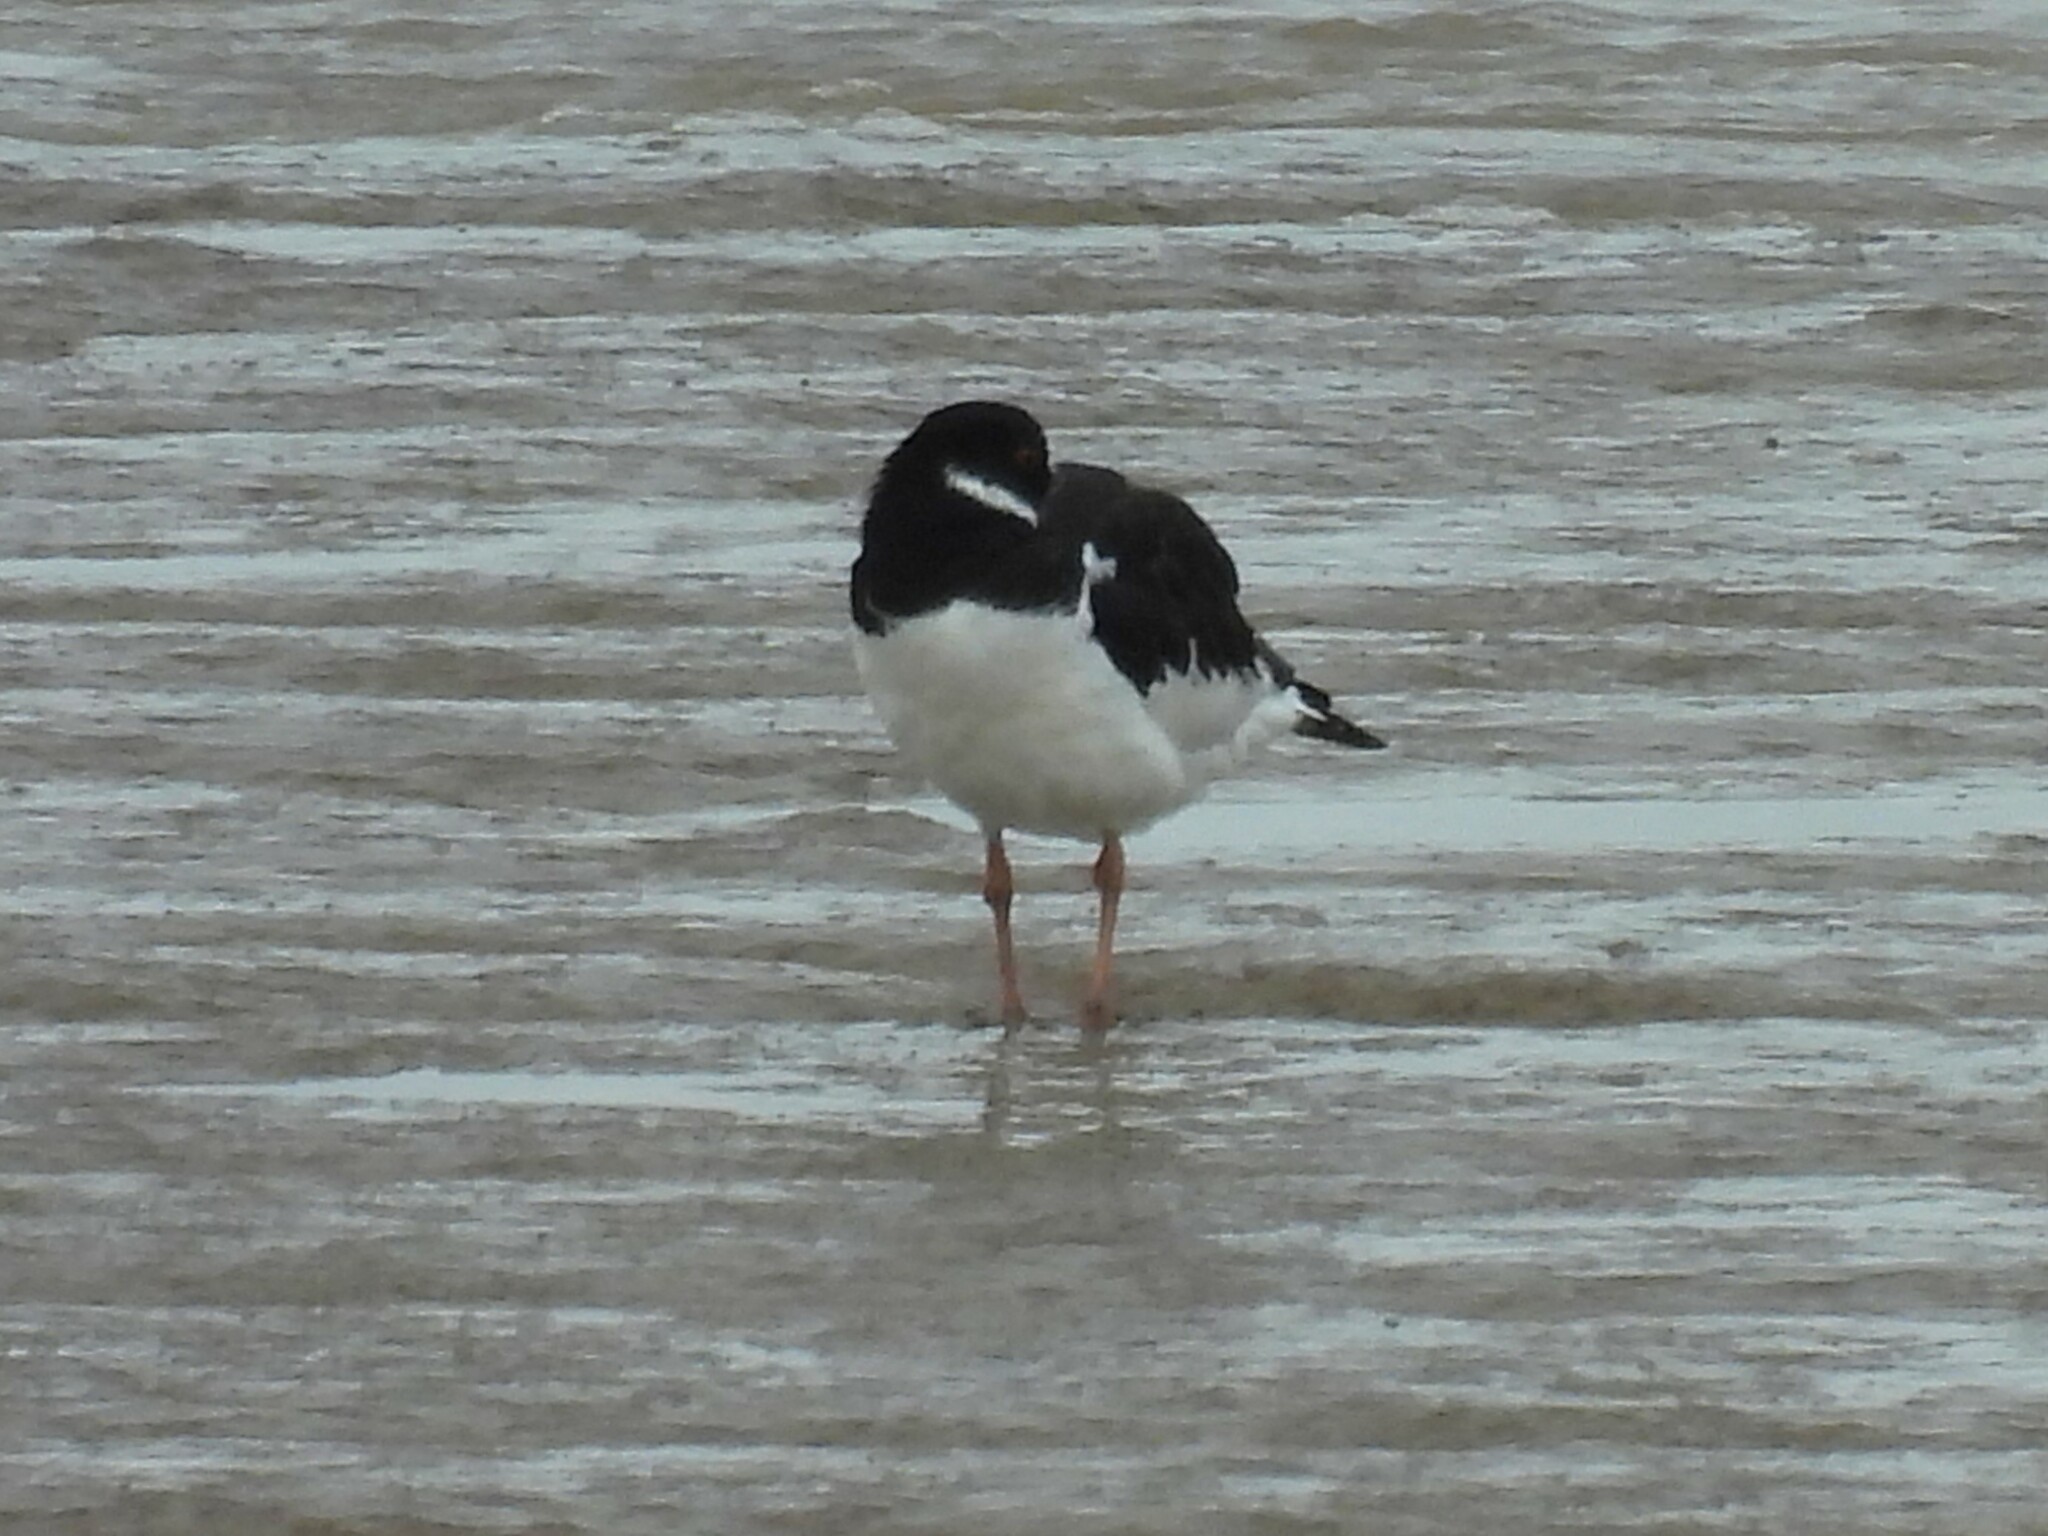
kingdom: Animalia
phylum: Chordata
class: Aves
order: Charadriiformes
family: Haematopodidae
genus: Haematopus
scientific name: Haematopus ostralegus
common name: Eurasian oystercatcher
